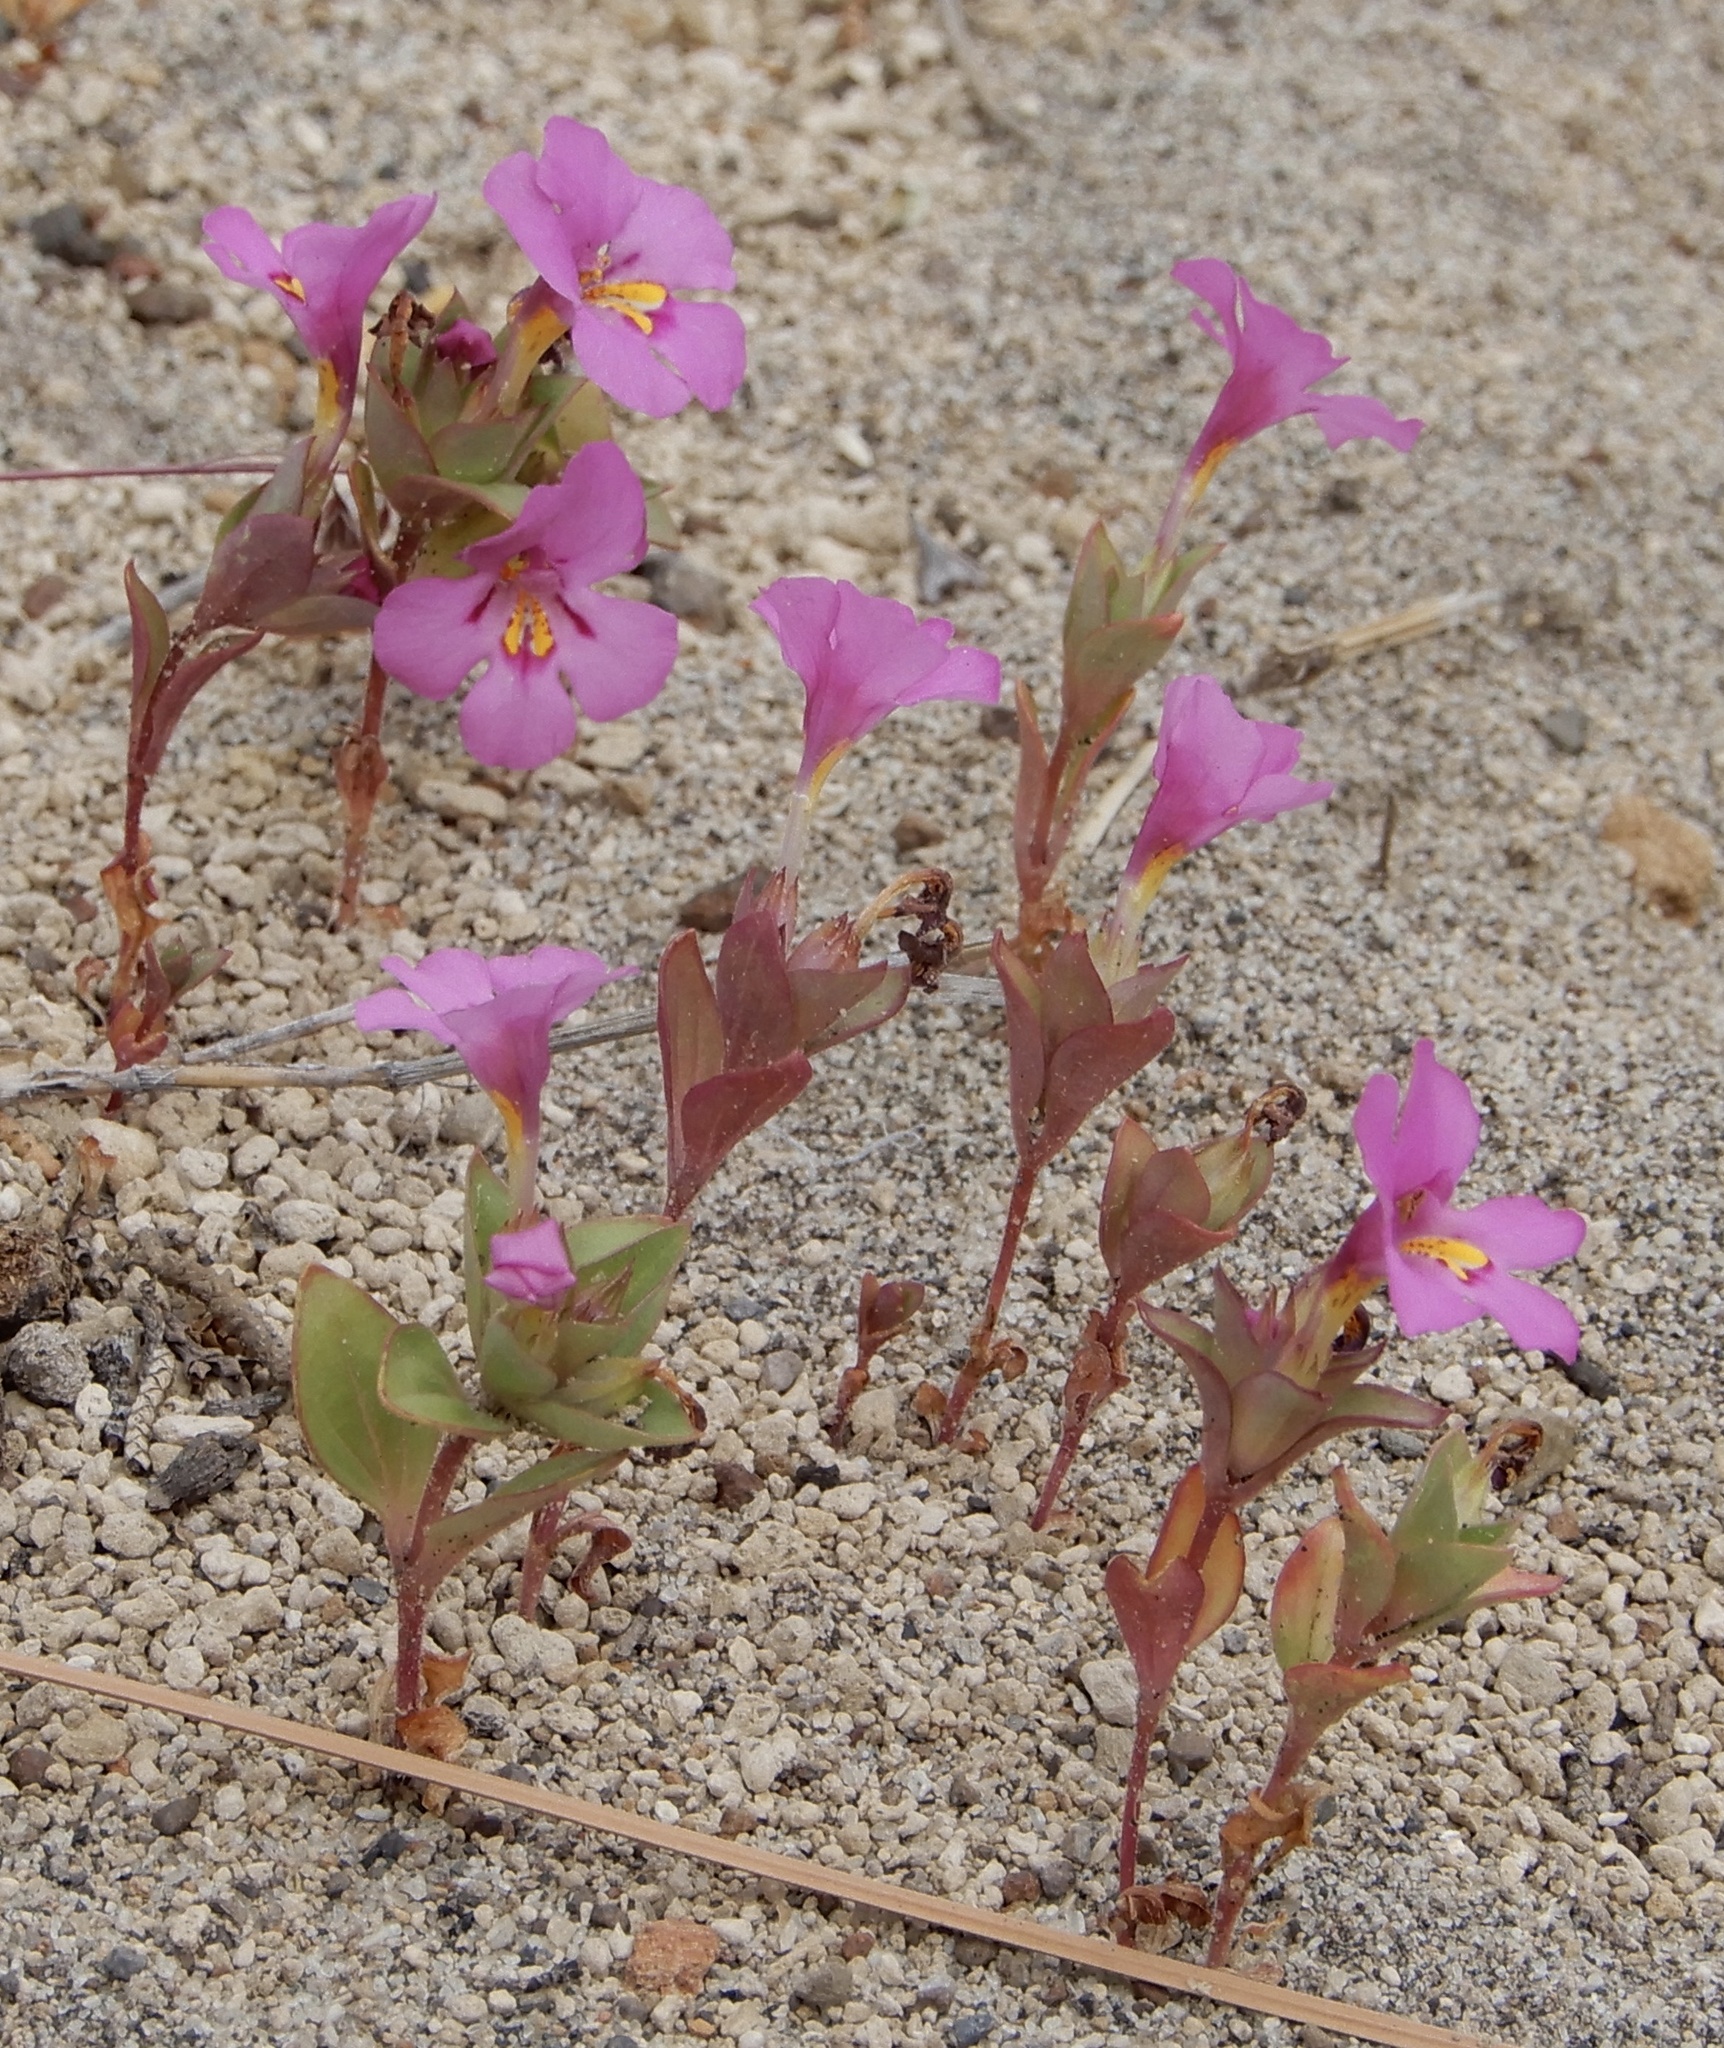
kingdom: Plantae
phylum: Tracheophyta
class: Magnoliopsida
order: Lamiales
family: Phrymaceae
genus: Diplacus
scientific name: Diplacus deschutesensis
